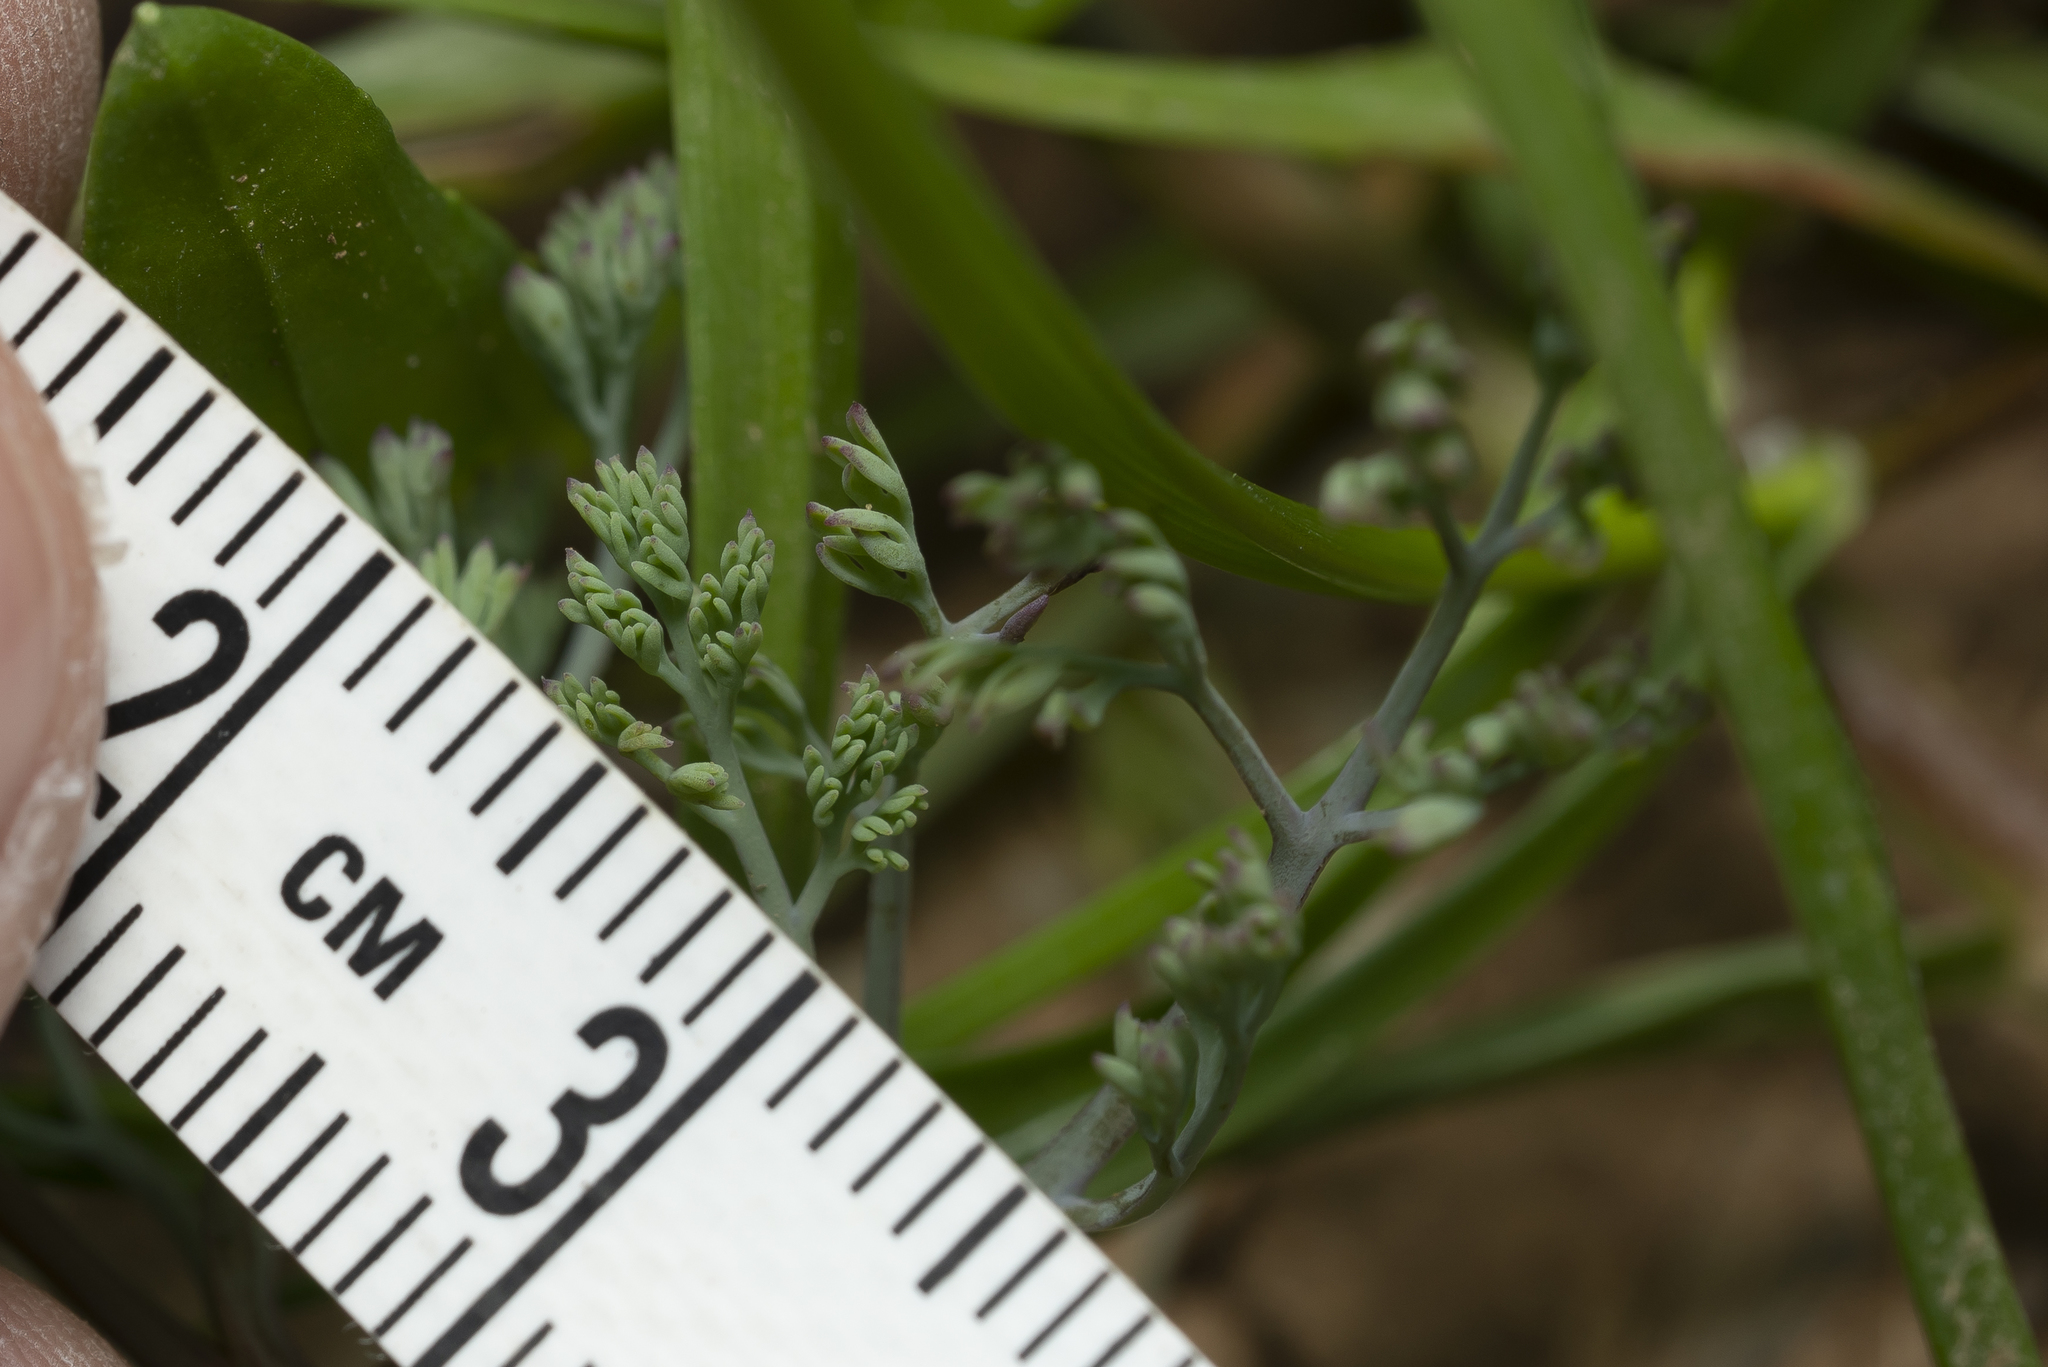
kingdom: Plantae
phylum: Tracheophyta
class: Magnoliopsida
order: Ranunculales
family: Papaveraceae
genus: Fumaria
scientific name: Fumaria parviflora
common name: Fine-leaved fumitory
